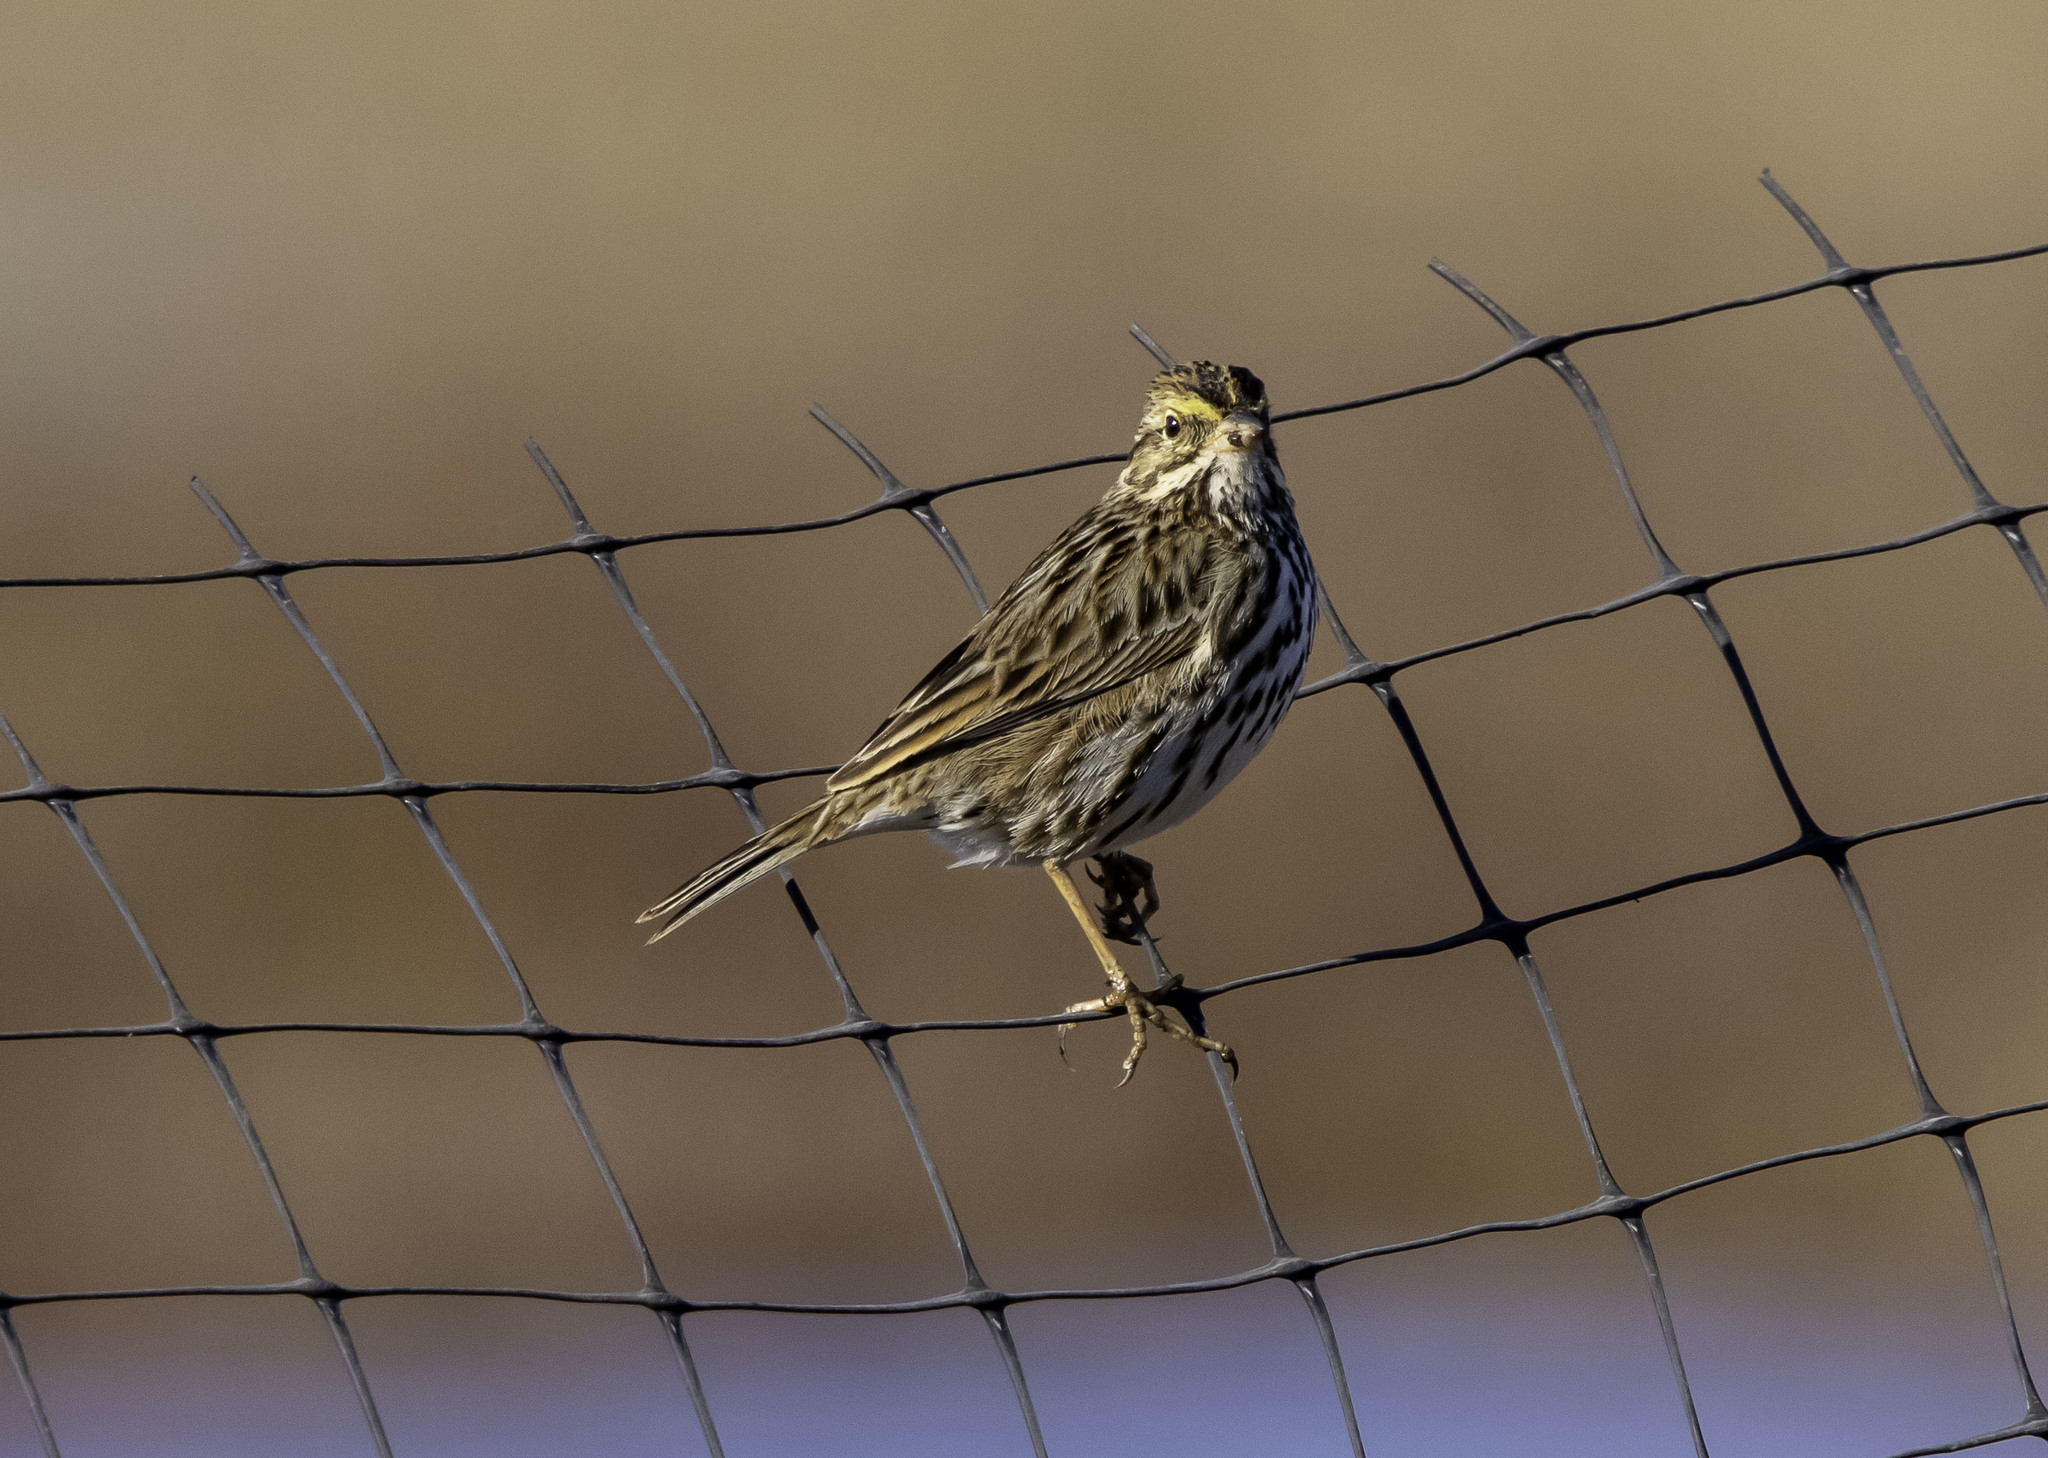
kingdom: Animalia
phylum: Chordata
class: Aves
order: Passeriformes
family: Passerellidae
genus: Passerculus
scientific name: Passerculus sandwichensis
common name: Savannah sparrow
